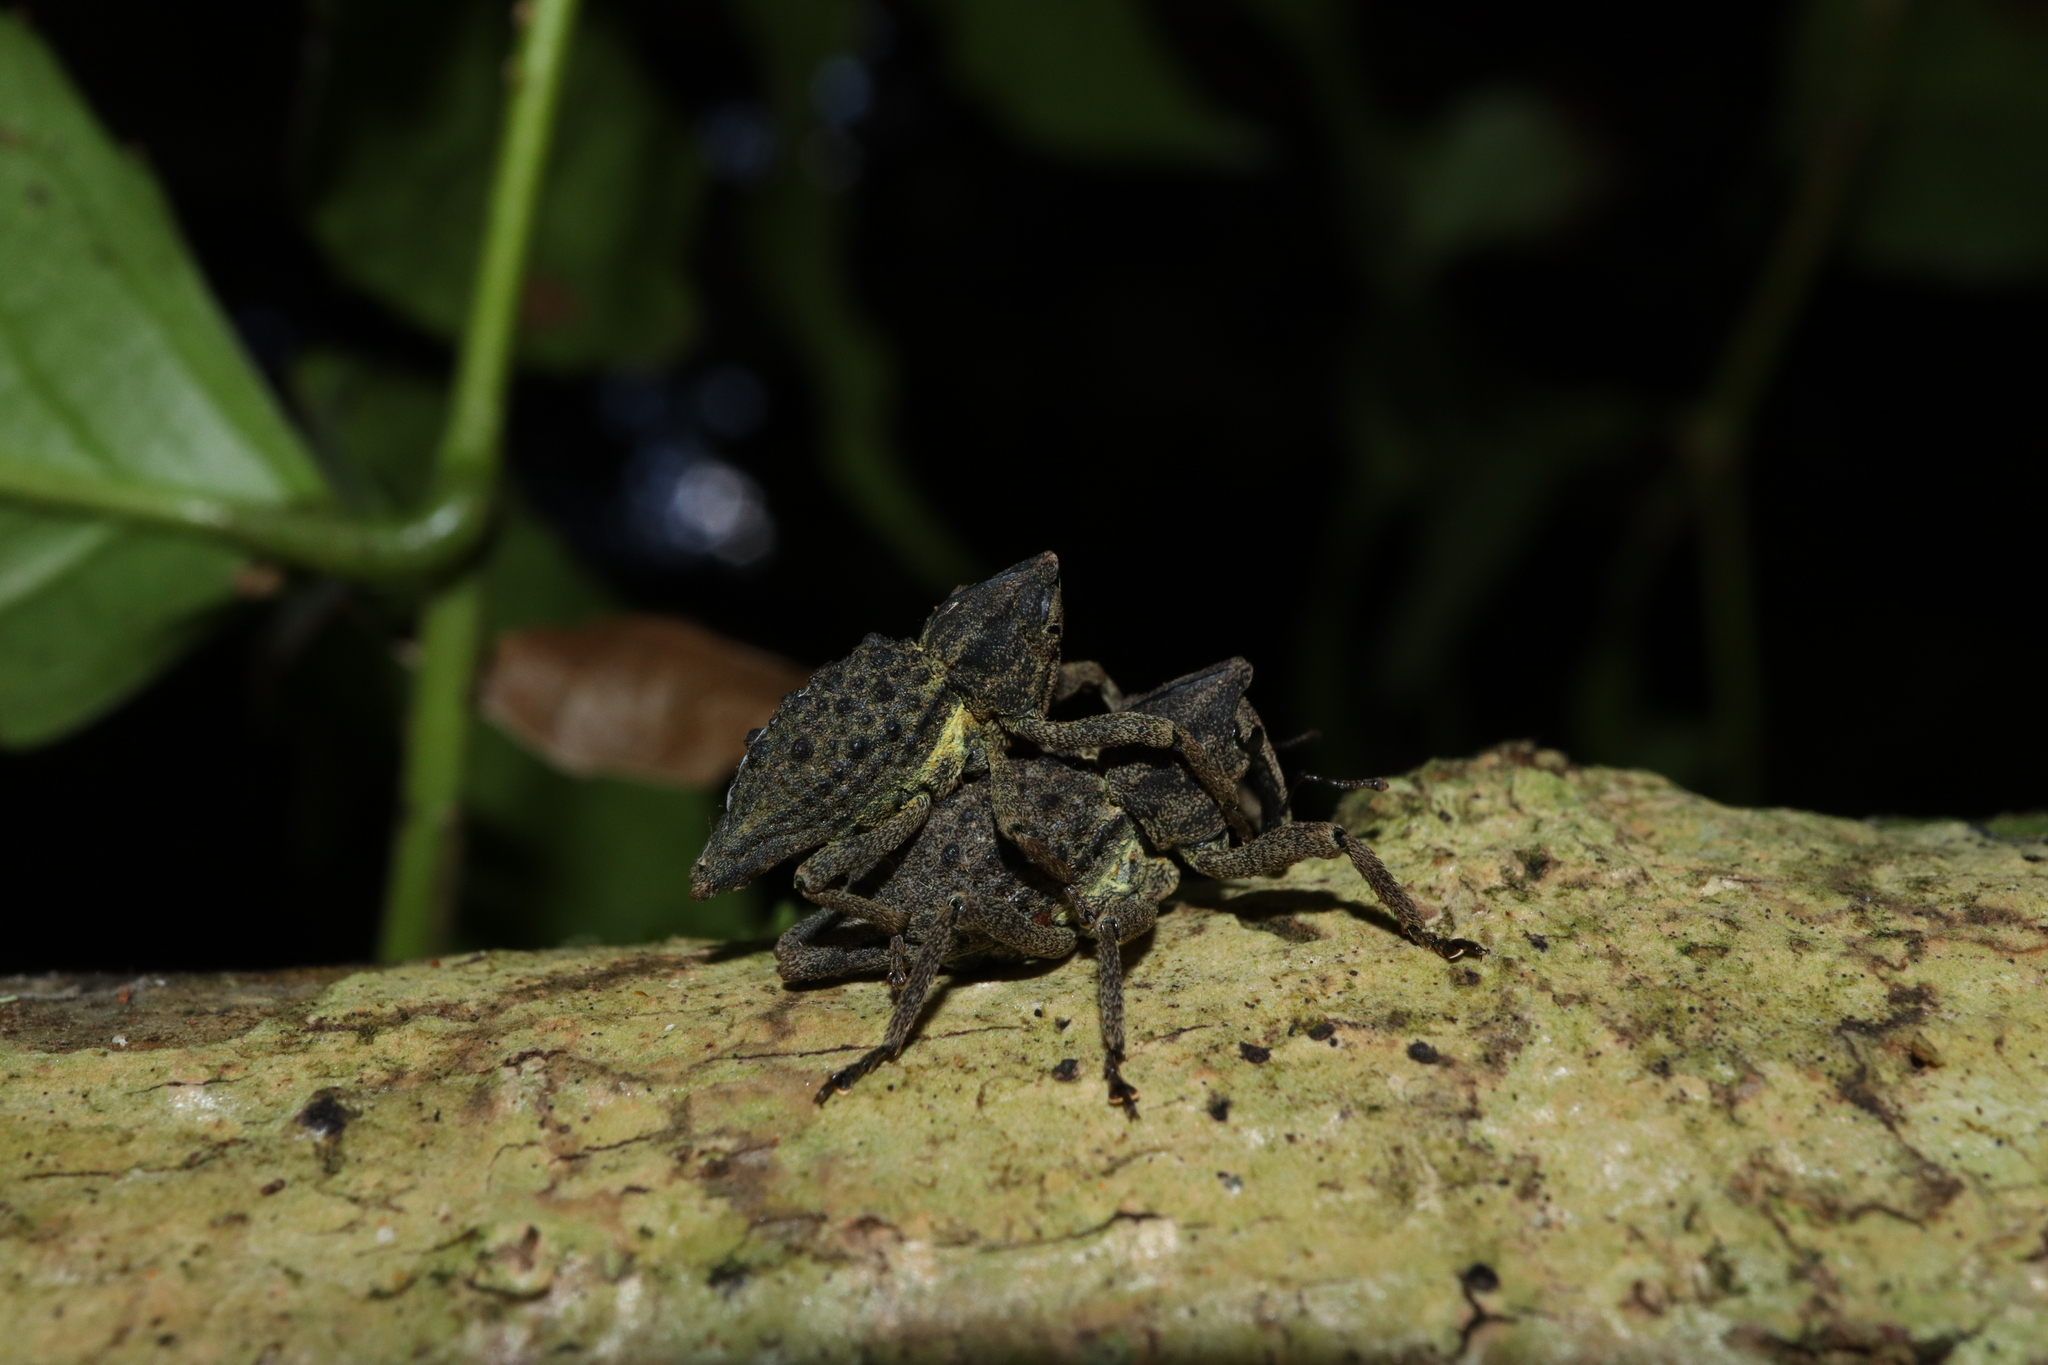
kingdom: Animalia
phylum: Arthropoda
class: Insecta
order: Coleoptera
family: Curculionidae
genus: Poropterus
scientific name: Poropterus ellipticus
